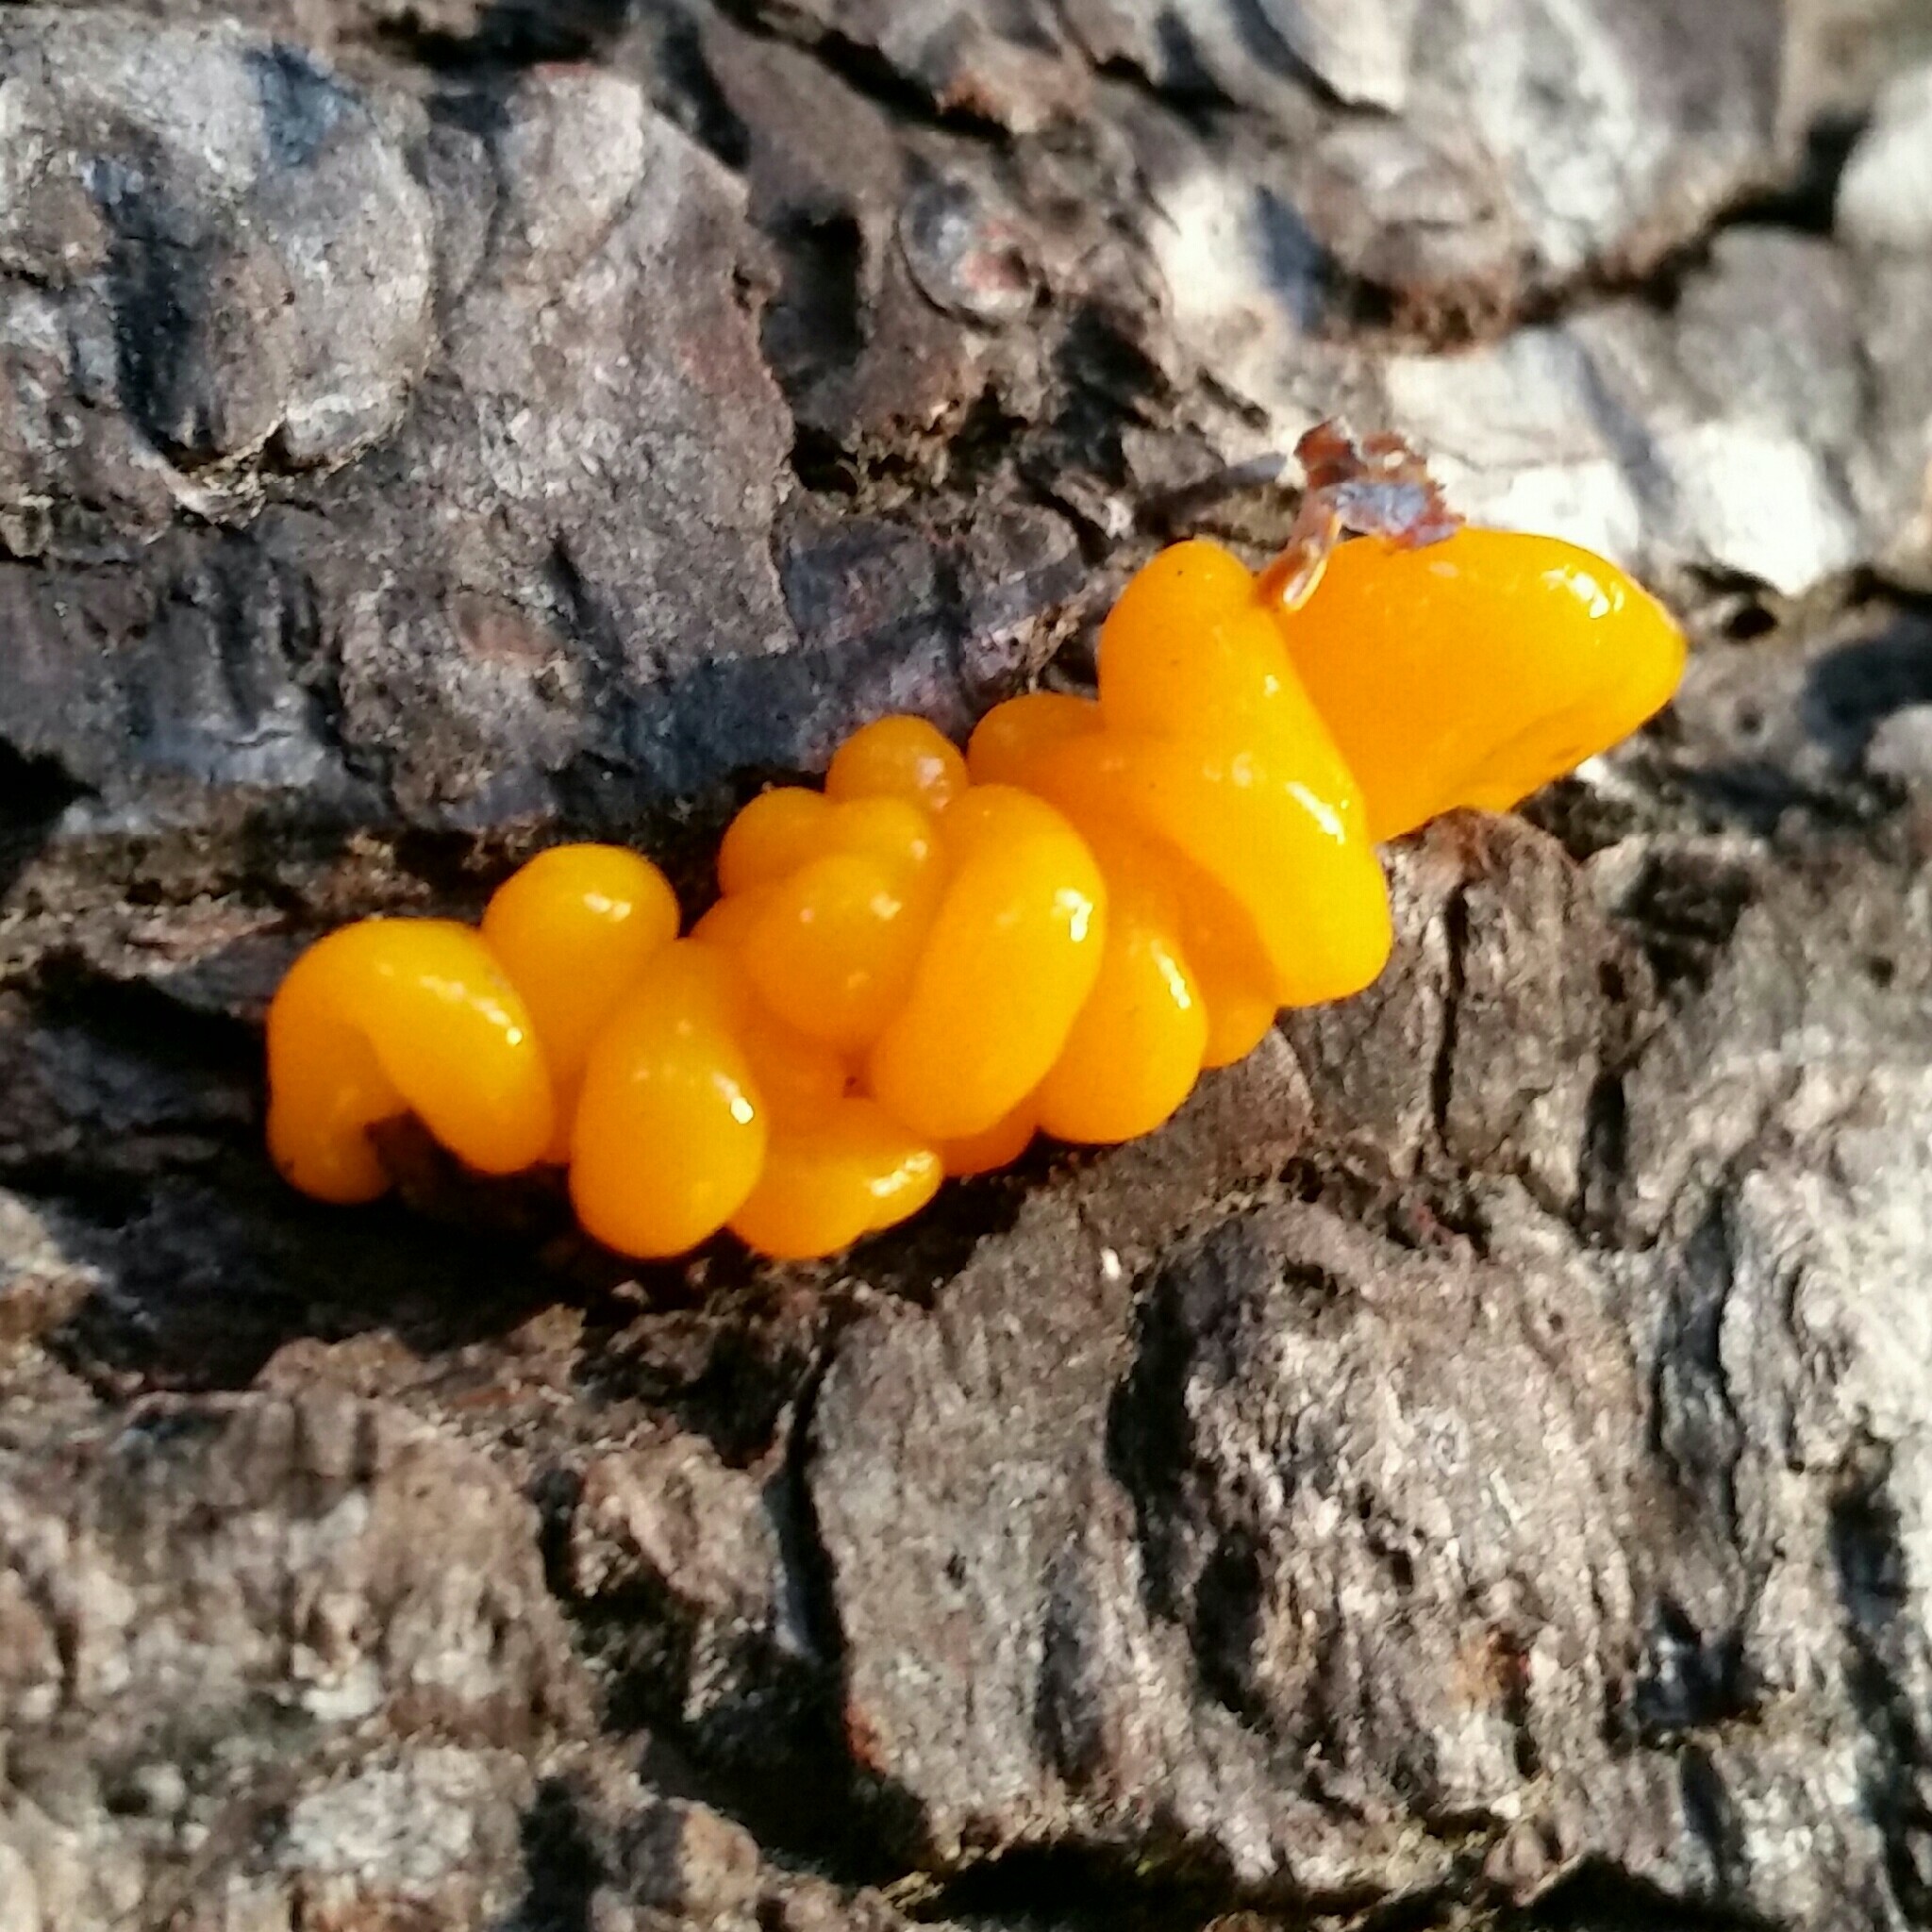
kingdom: Fungi
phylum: Basidiomycota
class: Dacrymycetes
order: Dacrymycetales
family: Dacrymycetaceae
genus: Dacrymyces
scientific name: Dacrymyces chrysospermus
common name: Orange jelly spot
